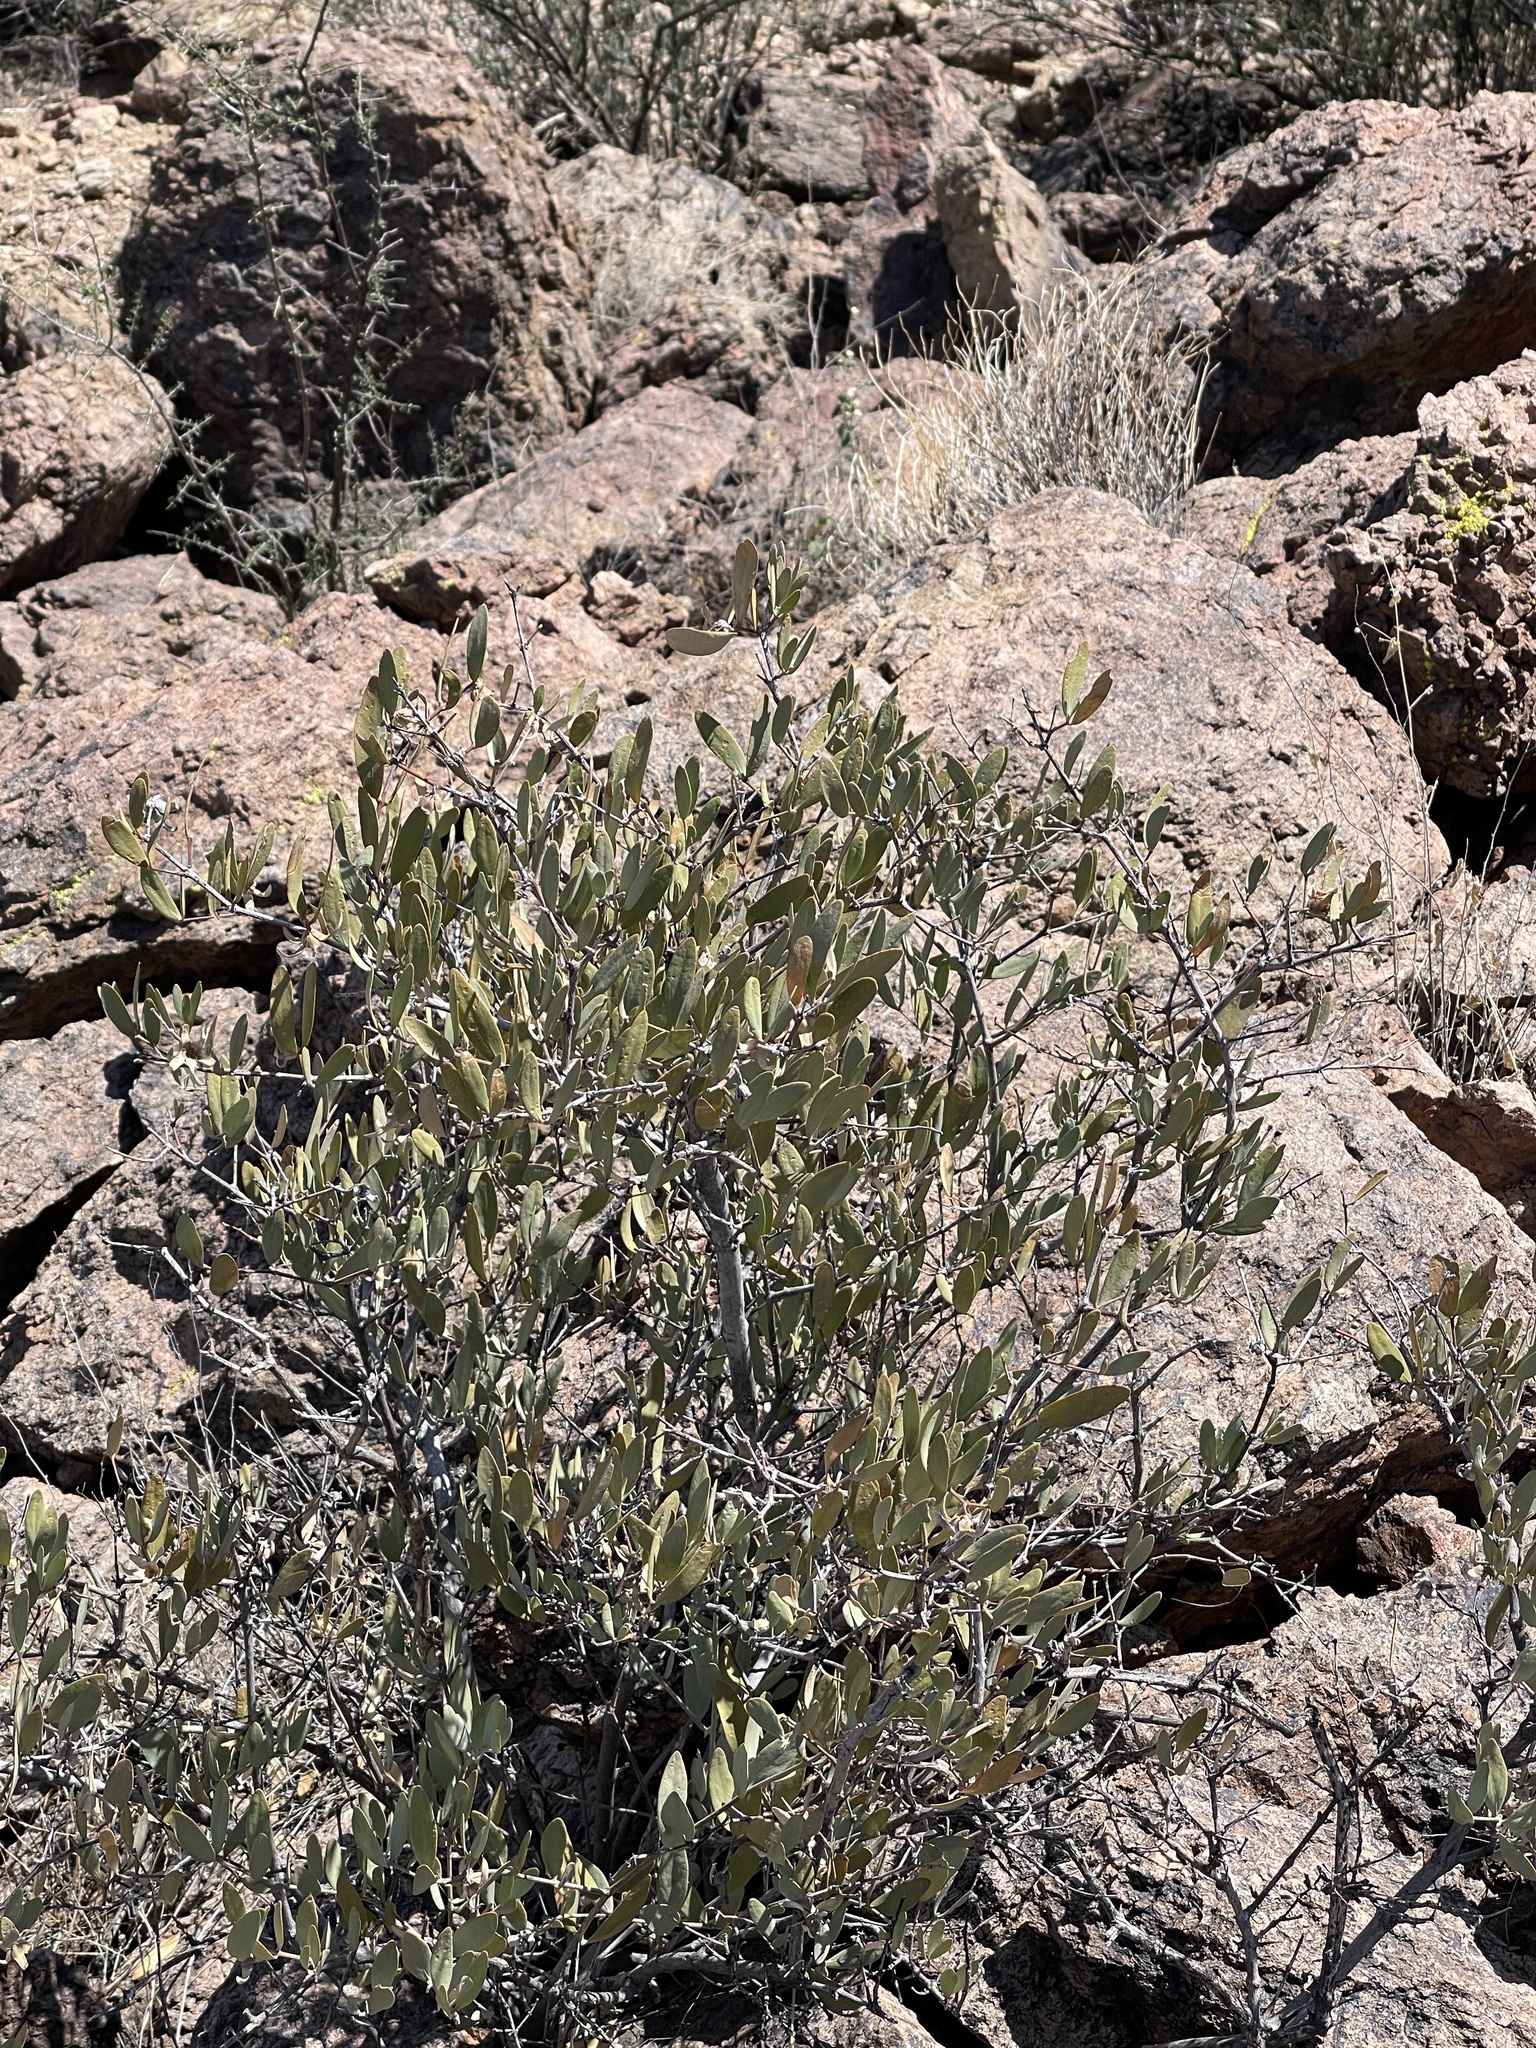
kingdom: Plantae
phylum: Tracheophyta
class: Magnoliopsida
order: Caryophyllales
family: Simmondsiaceae
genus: Simmondsia
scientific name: Simmondsia chinensis
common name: Jojoba
